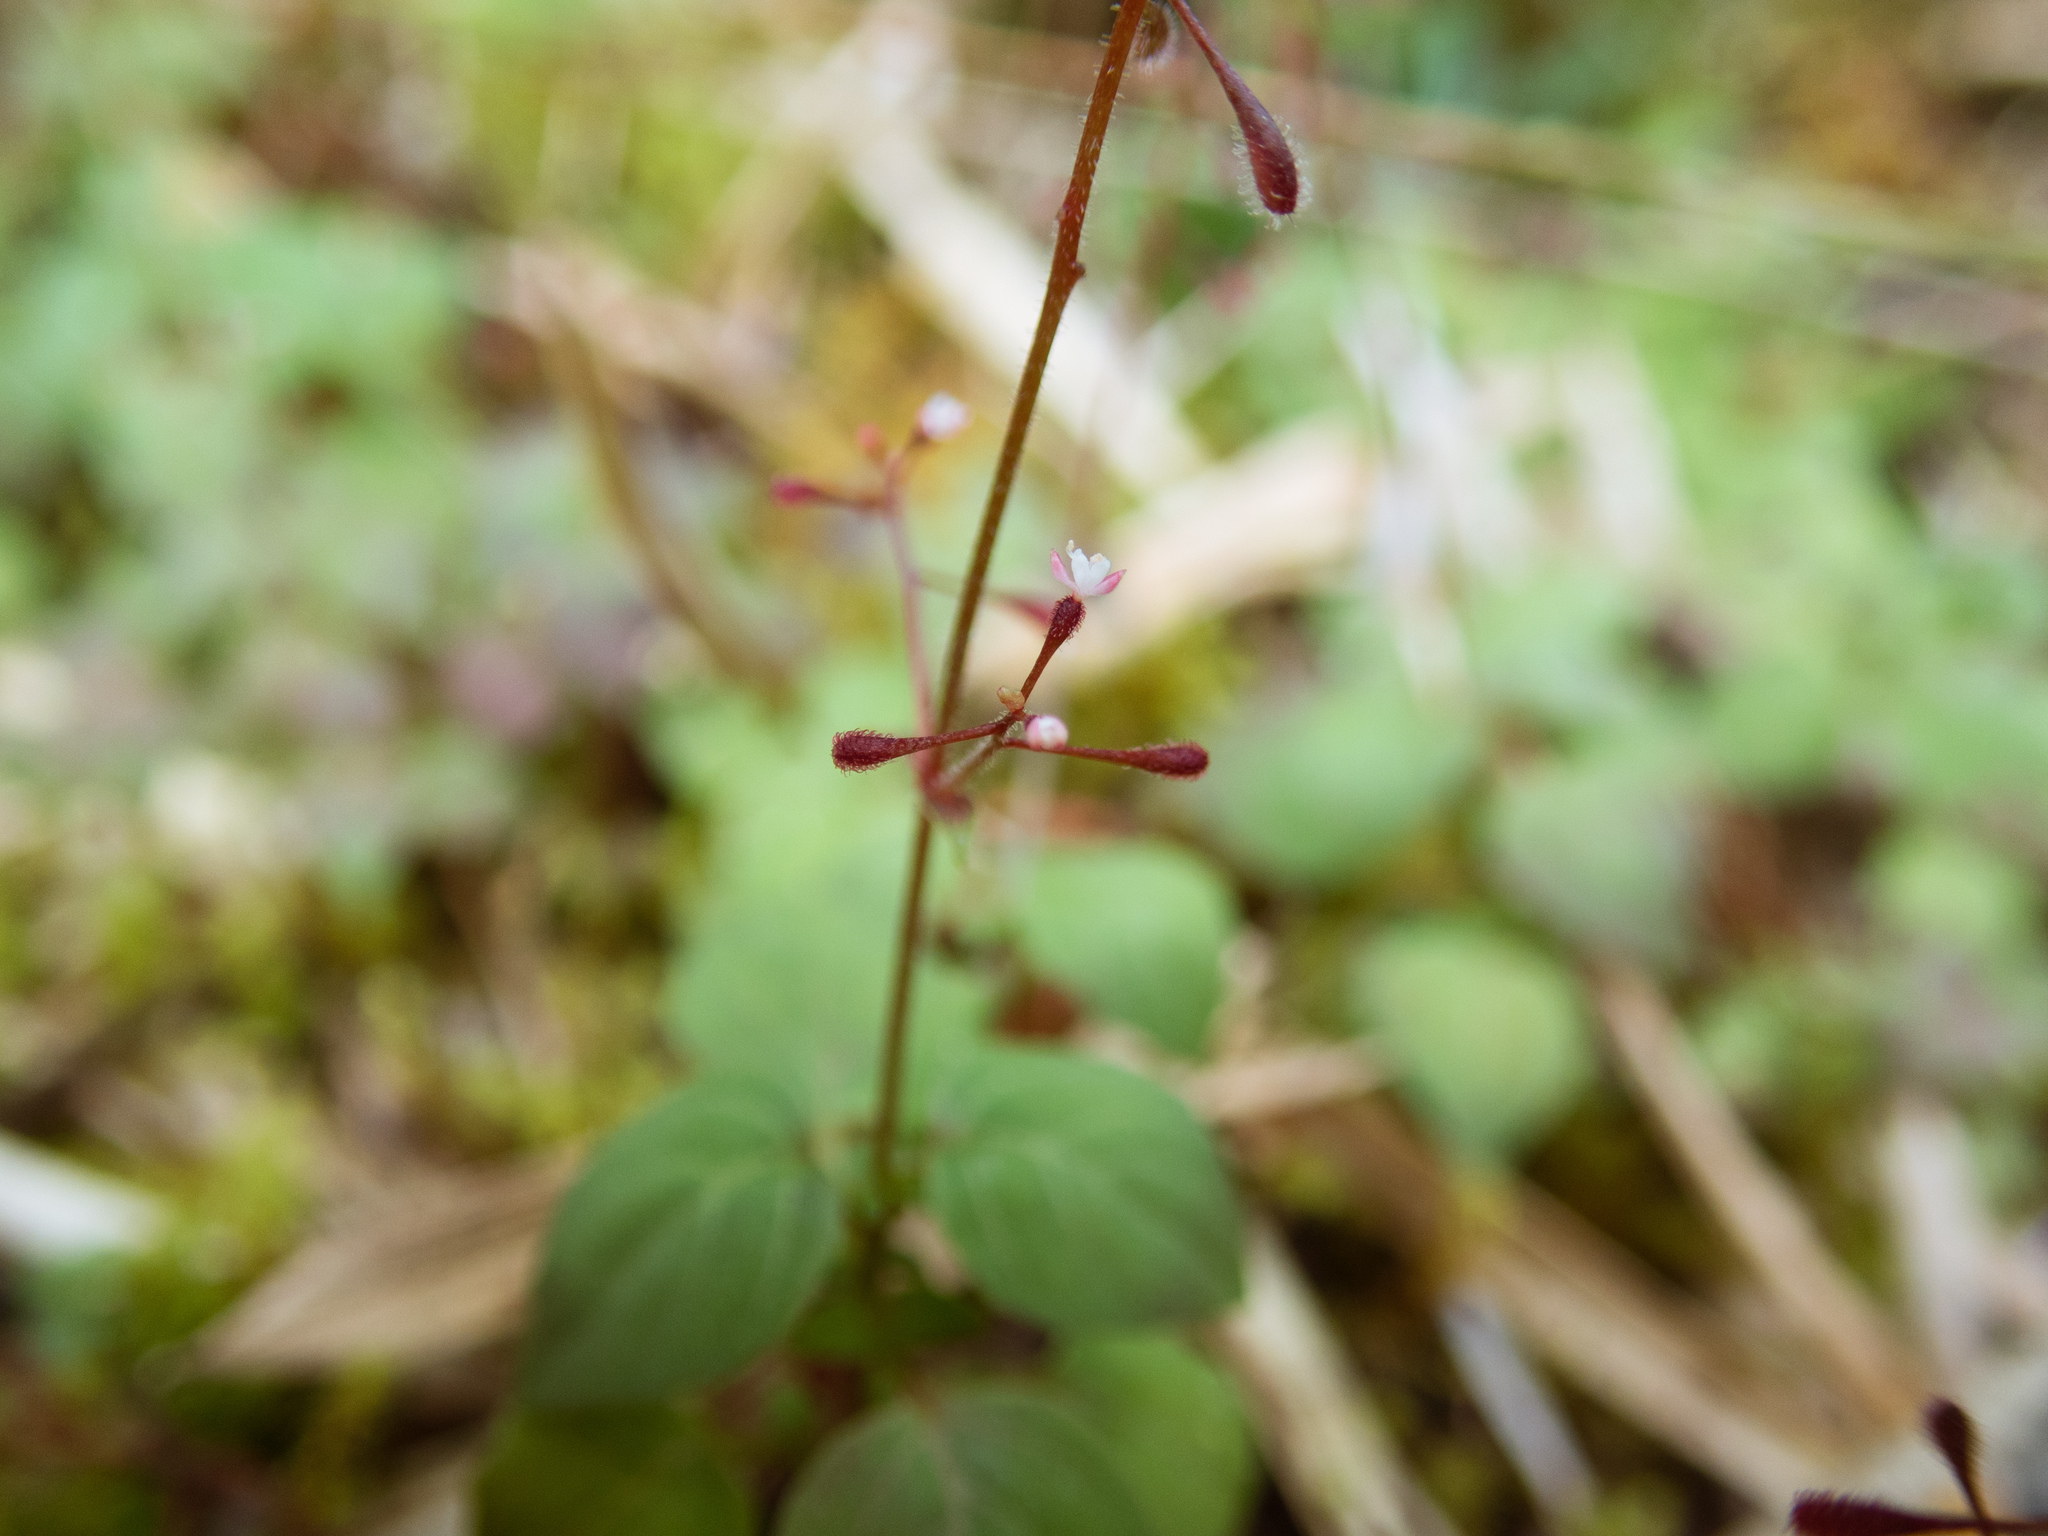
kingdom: Plantae
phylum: Tracheophyta
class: Magnoliopsida
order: Myrtales
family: Onagraceae
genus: Circaea
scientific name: Circaea alpina
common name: Alpine enchanter's-nightshade
